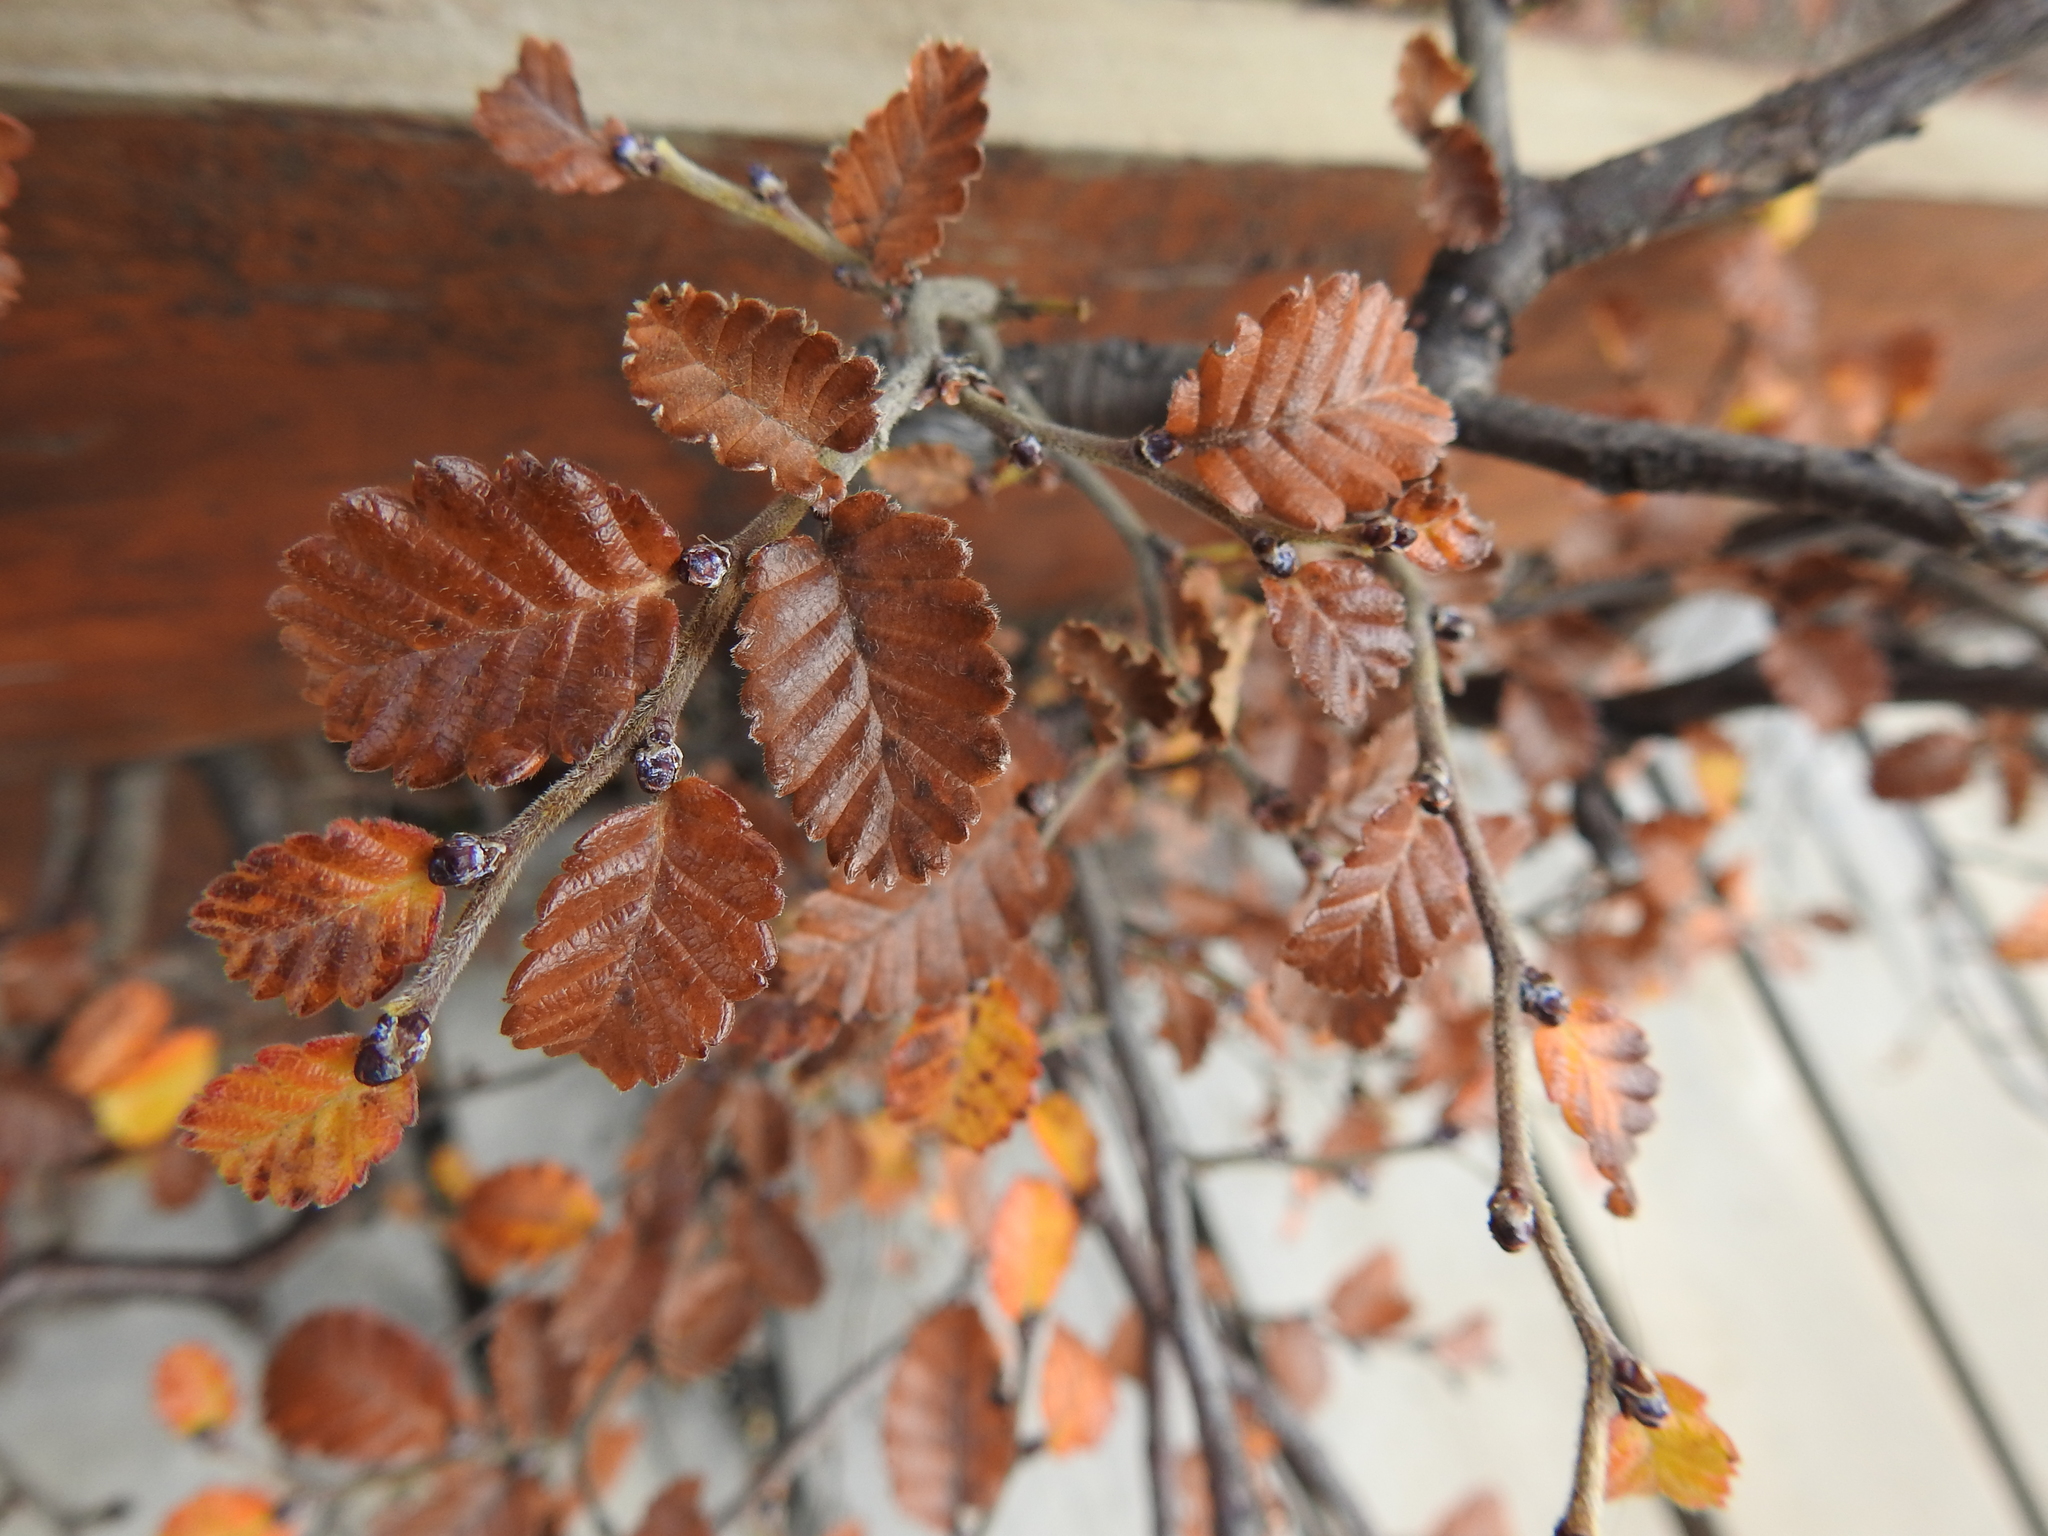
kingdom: Plantae
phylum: Tracheophyta
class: Magnoliopsida
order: Fagales
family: Nothofagaceae
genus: Nothofagus
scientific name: Nothofagus pumilio
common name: Lenga beech
